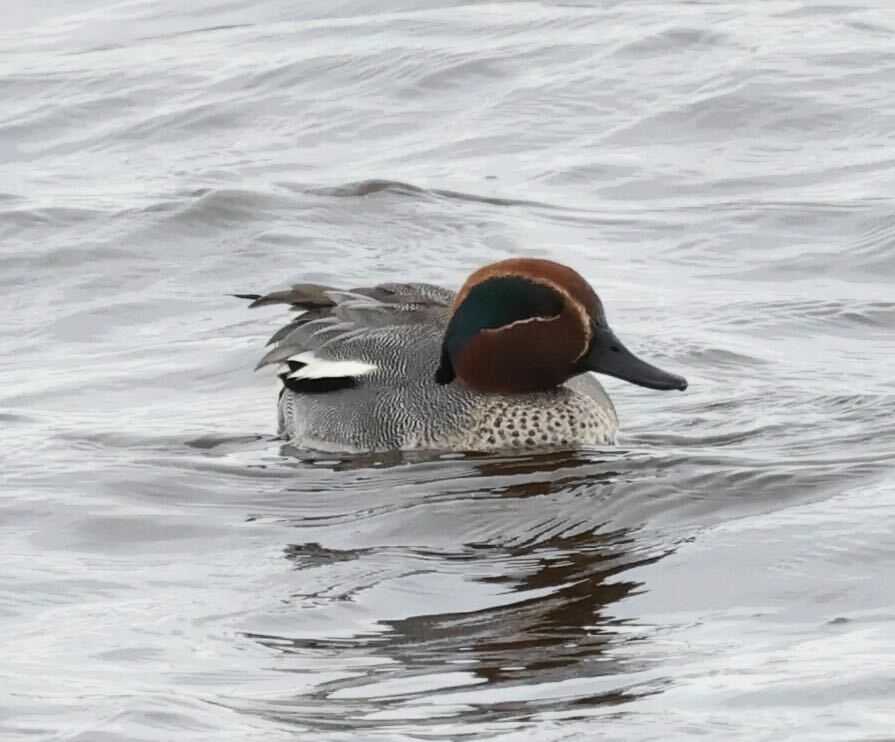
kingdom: Animalia
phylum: Chordata
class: Aves
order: Anseriformes
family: Anatidae
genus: Anas
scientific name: Anas crecca
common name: Eurasian teal
